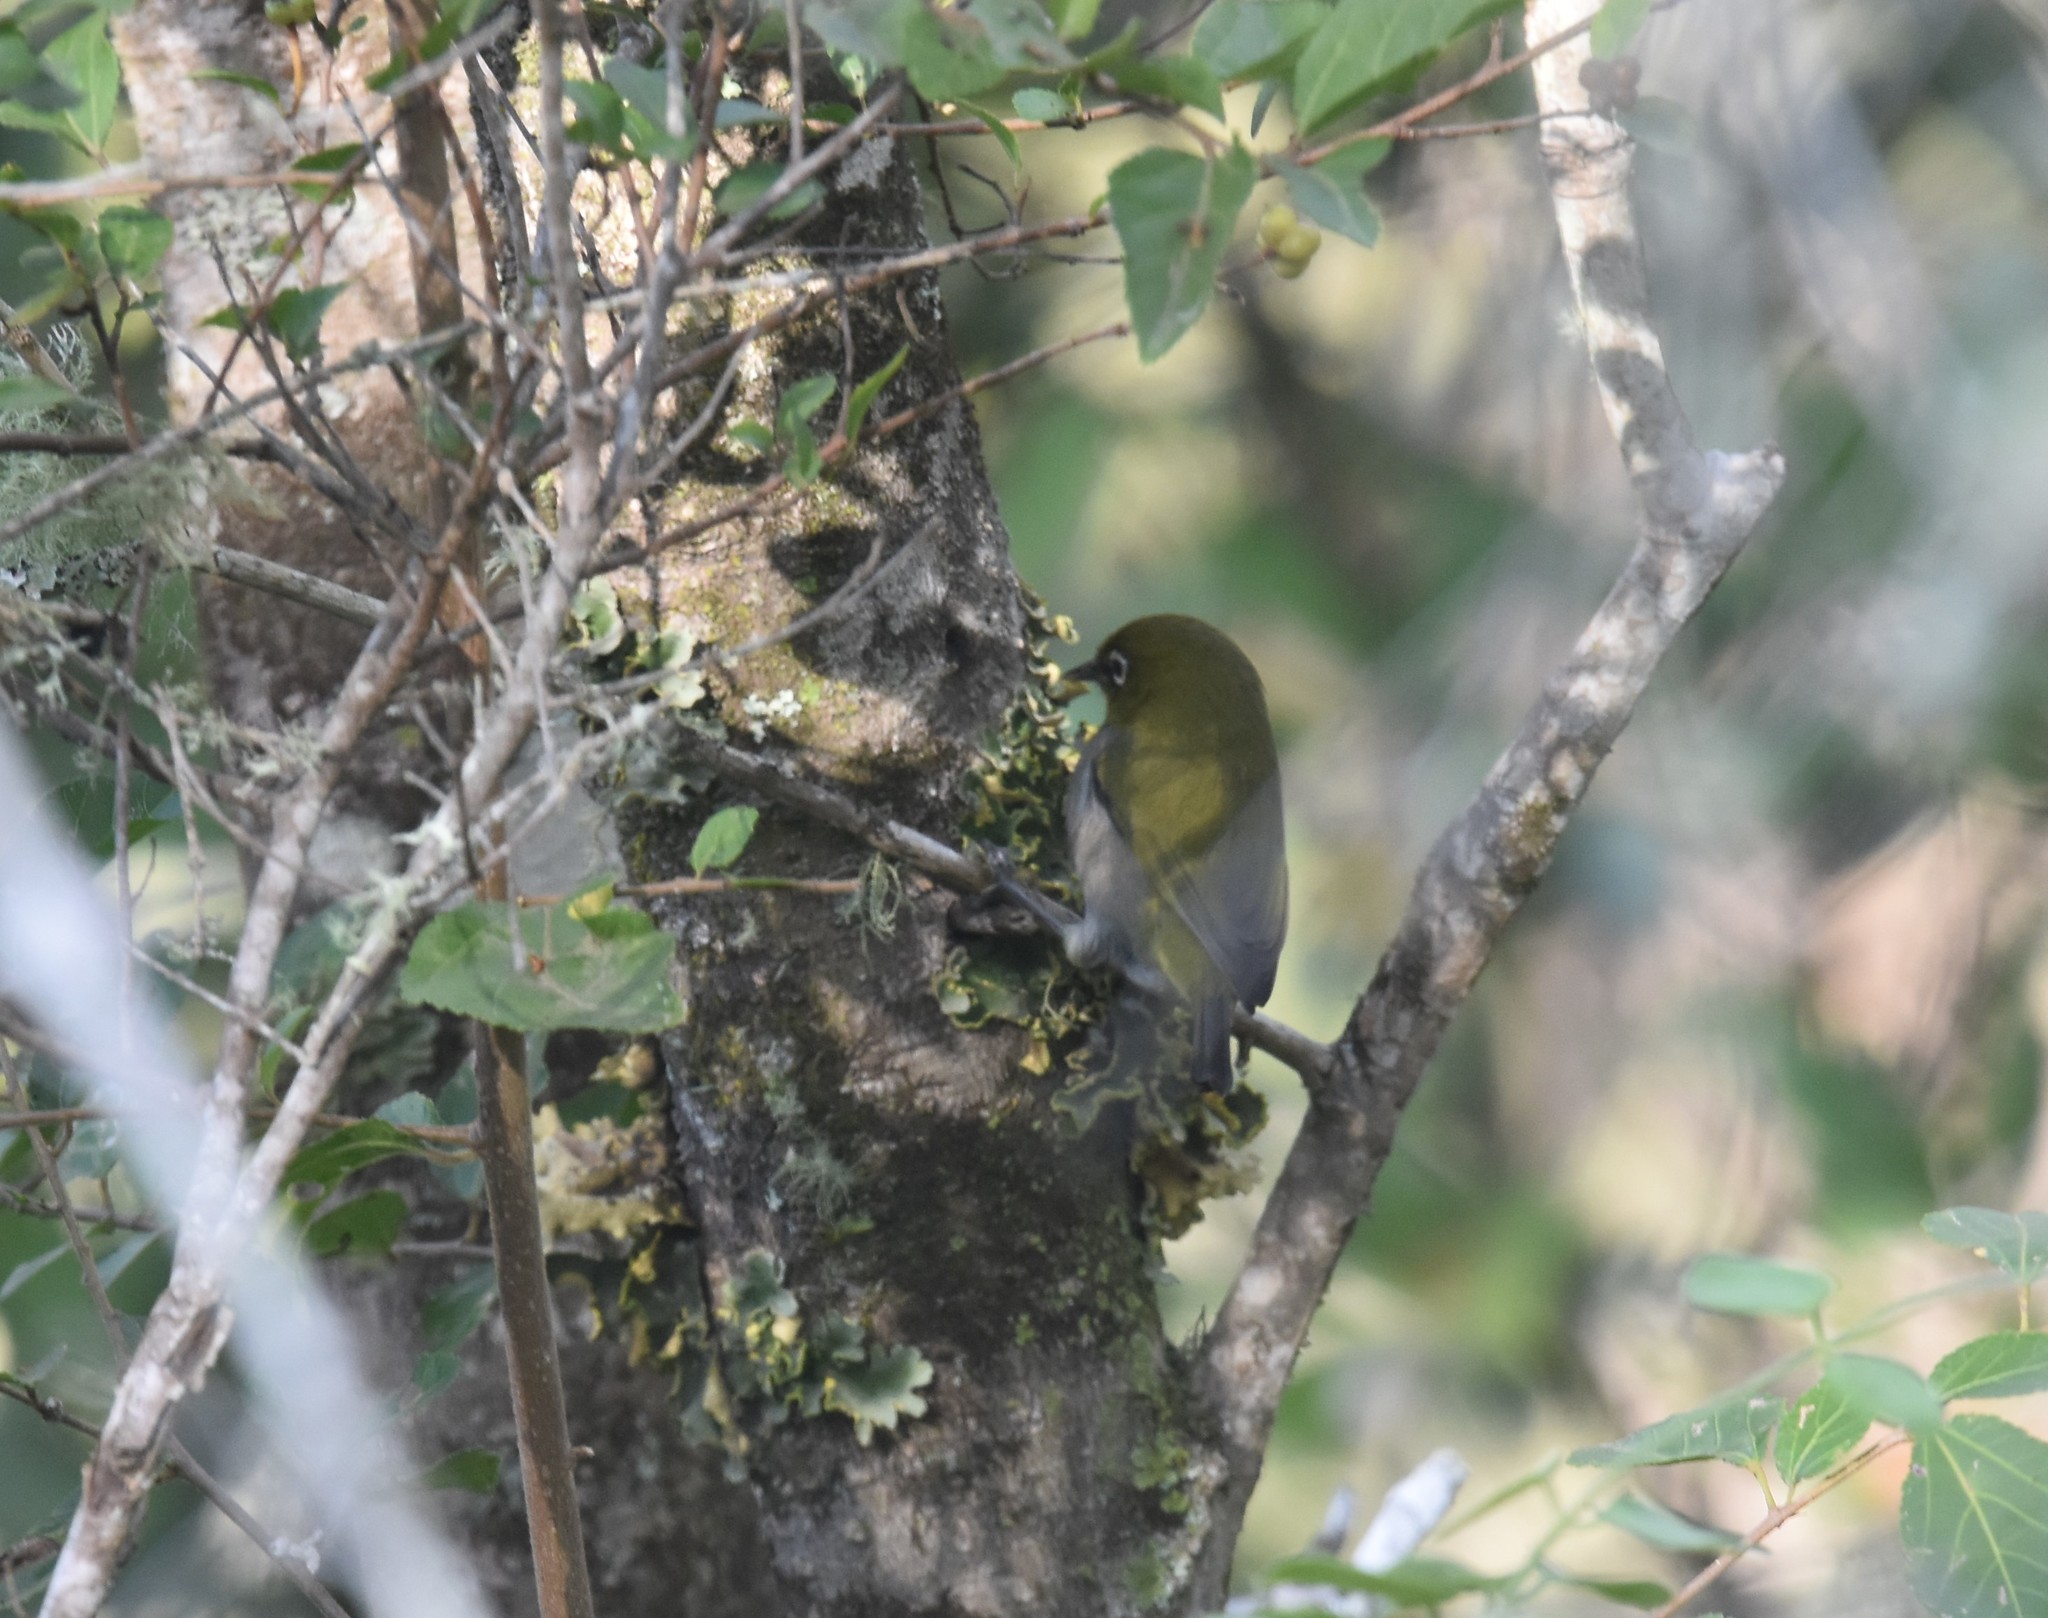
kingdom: Animalia
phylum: Chordata
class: Aves
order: Passeriformes
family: Zosteropidae
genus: Zosterops
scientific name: Zosterops virens
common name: Cape white-eye
